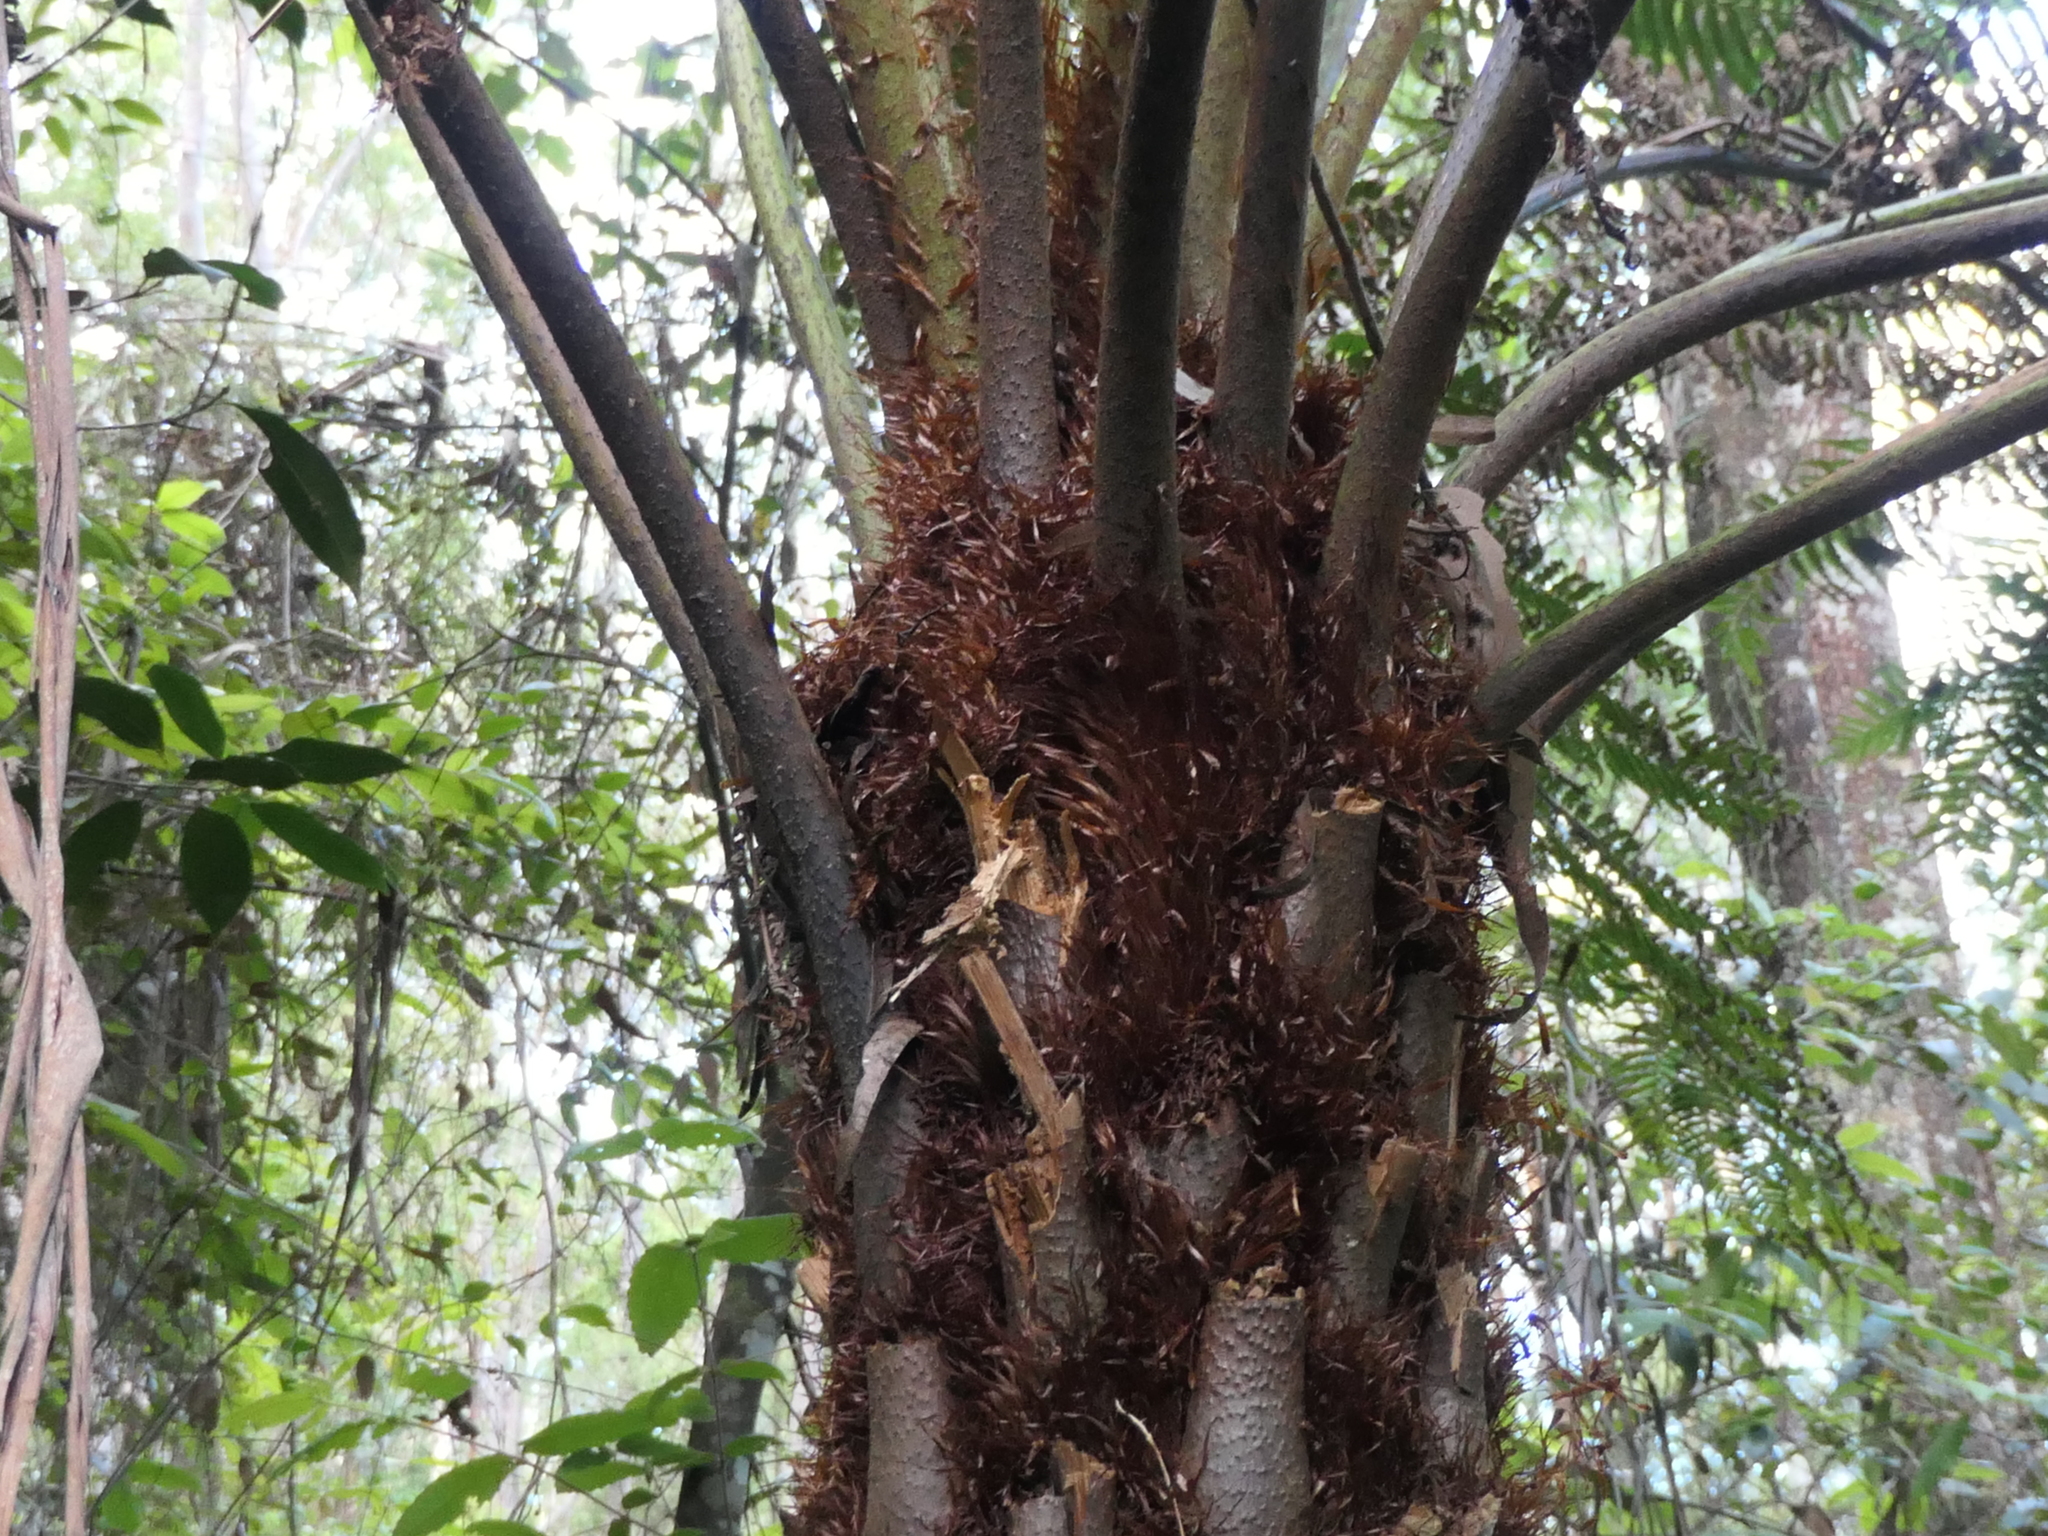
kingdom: Plantae
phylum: Tracheophyta
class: Polypodiopsida
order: Cyatheales
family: Cyatheaceae
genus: Alsophila
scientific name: Alsophila australis
